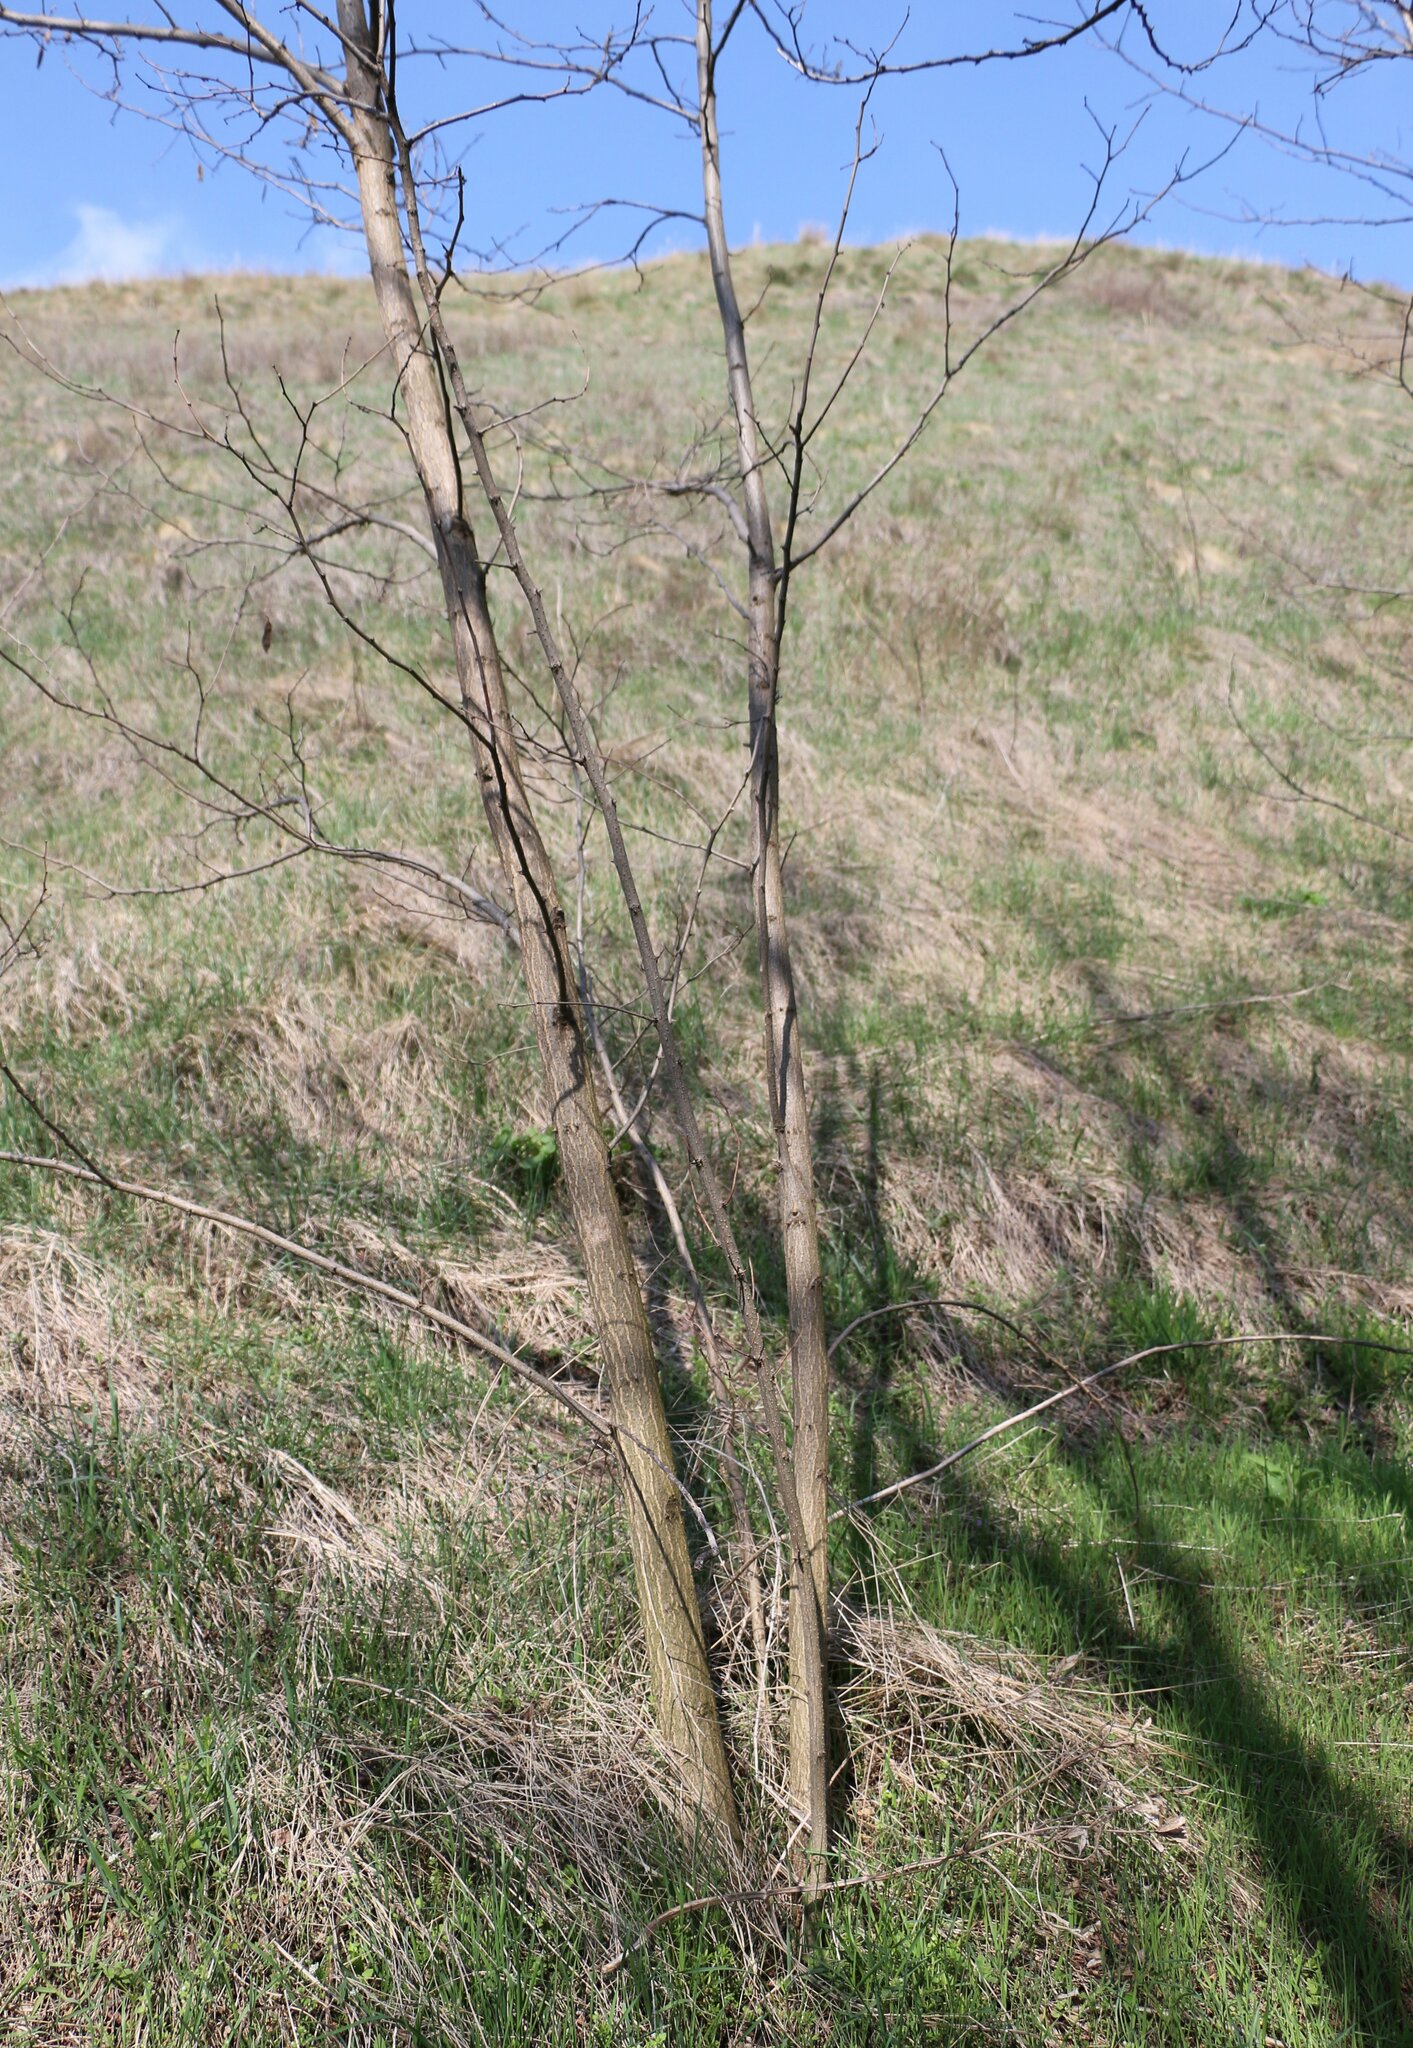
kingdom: Plantae
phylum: Tracheophyta
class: Magnoliopsida
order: Fabales
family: Fabaceae
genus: Robinia
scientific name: Robinia pseudoacacia
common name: Black locust
